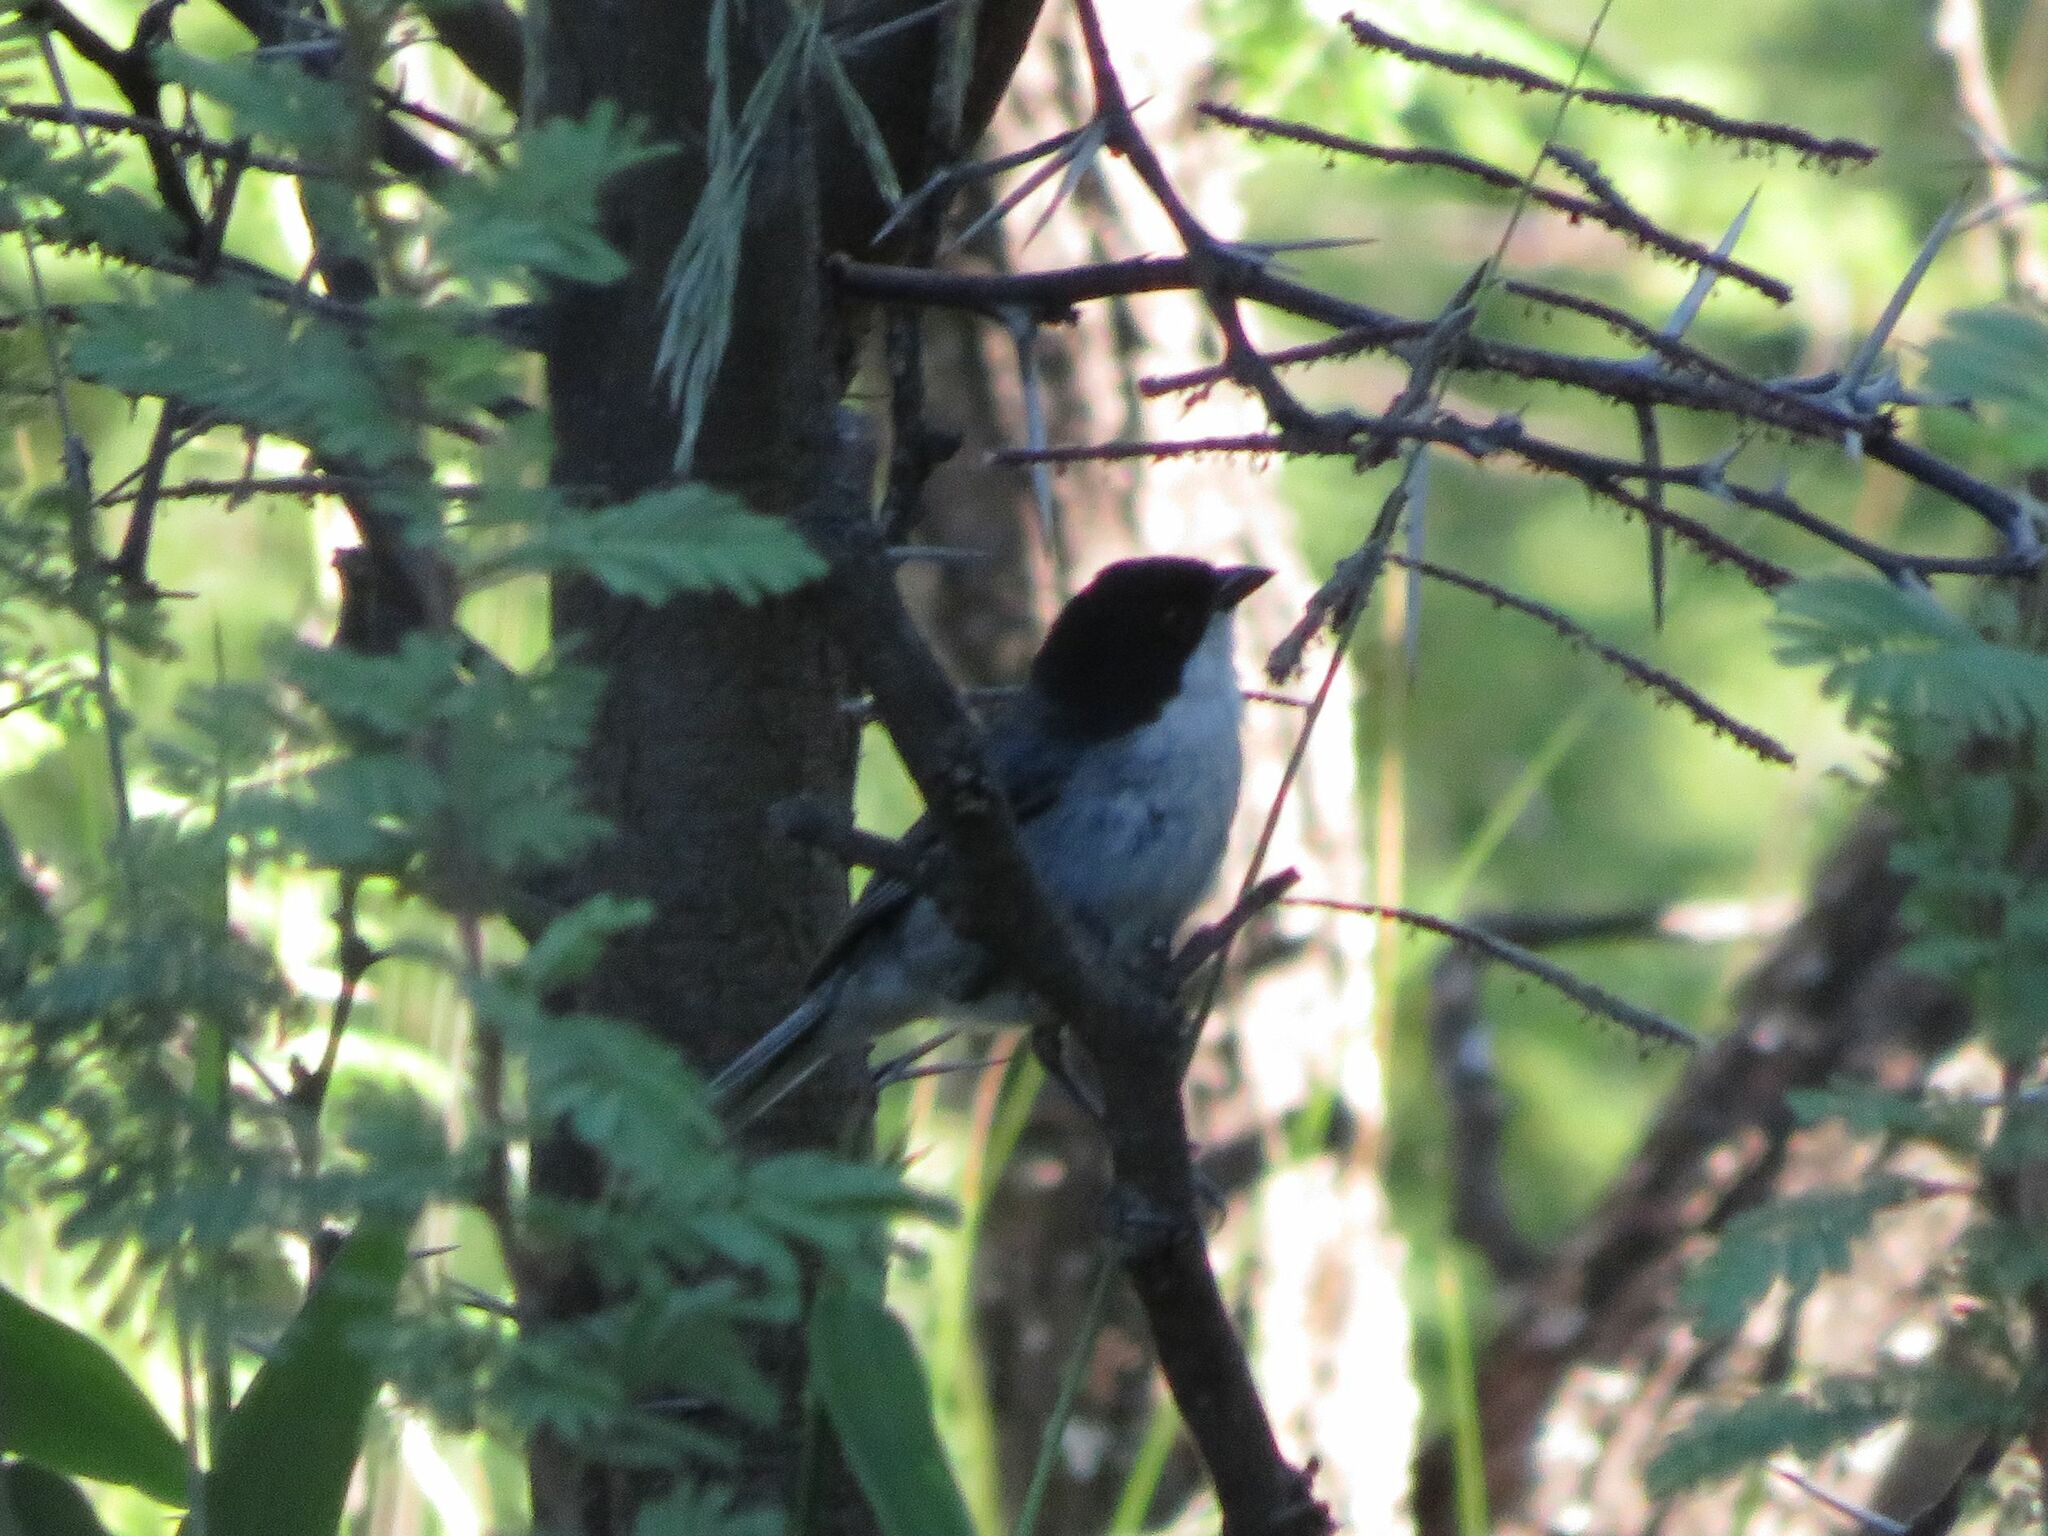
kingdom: Animalia
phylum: Chordata
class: Aves
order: Passeriformes
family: Thraupidae
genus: Microspingus
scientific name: Microspingus melanoleucus
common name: Black-capped warbling-finch
